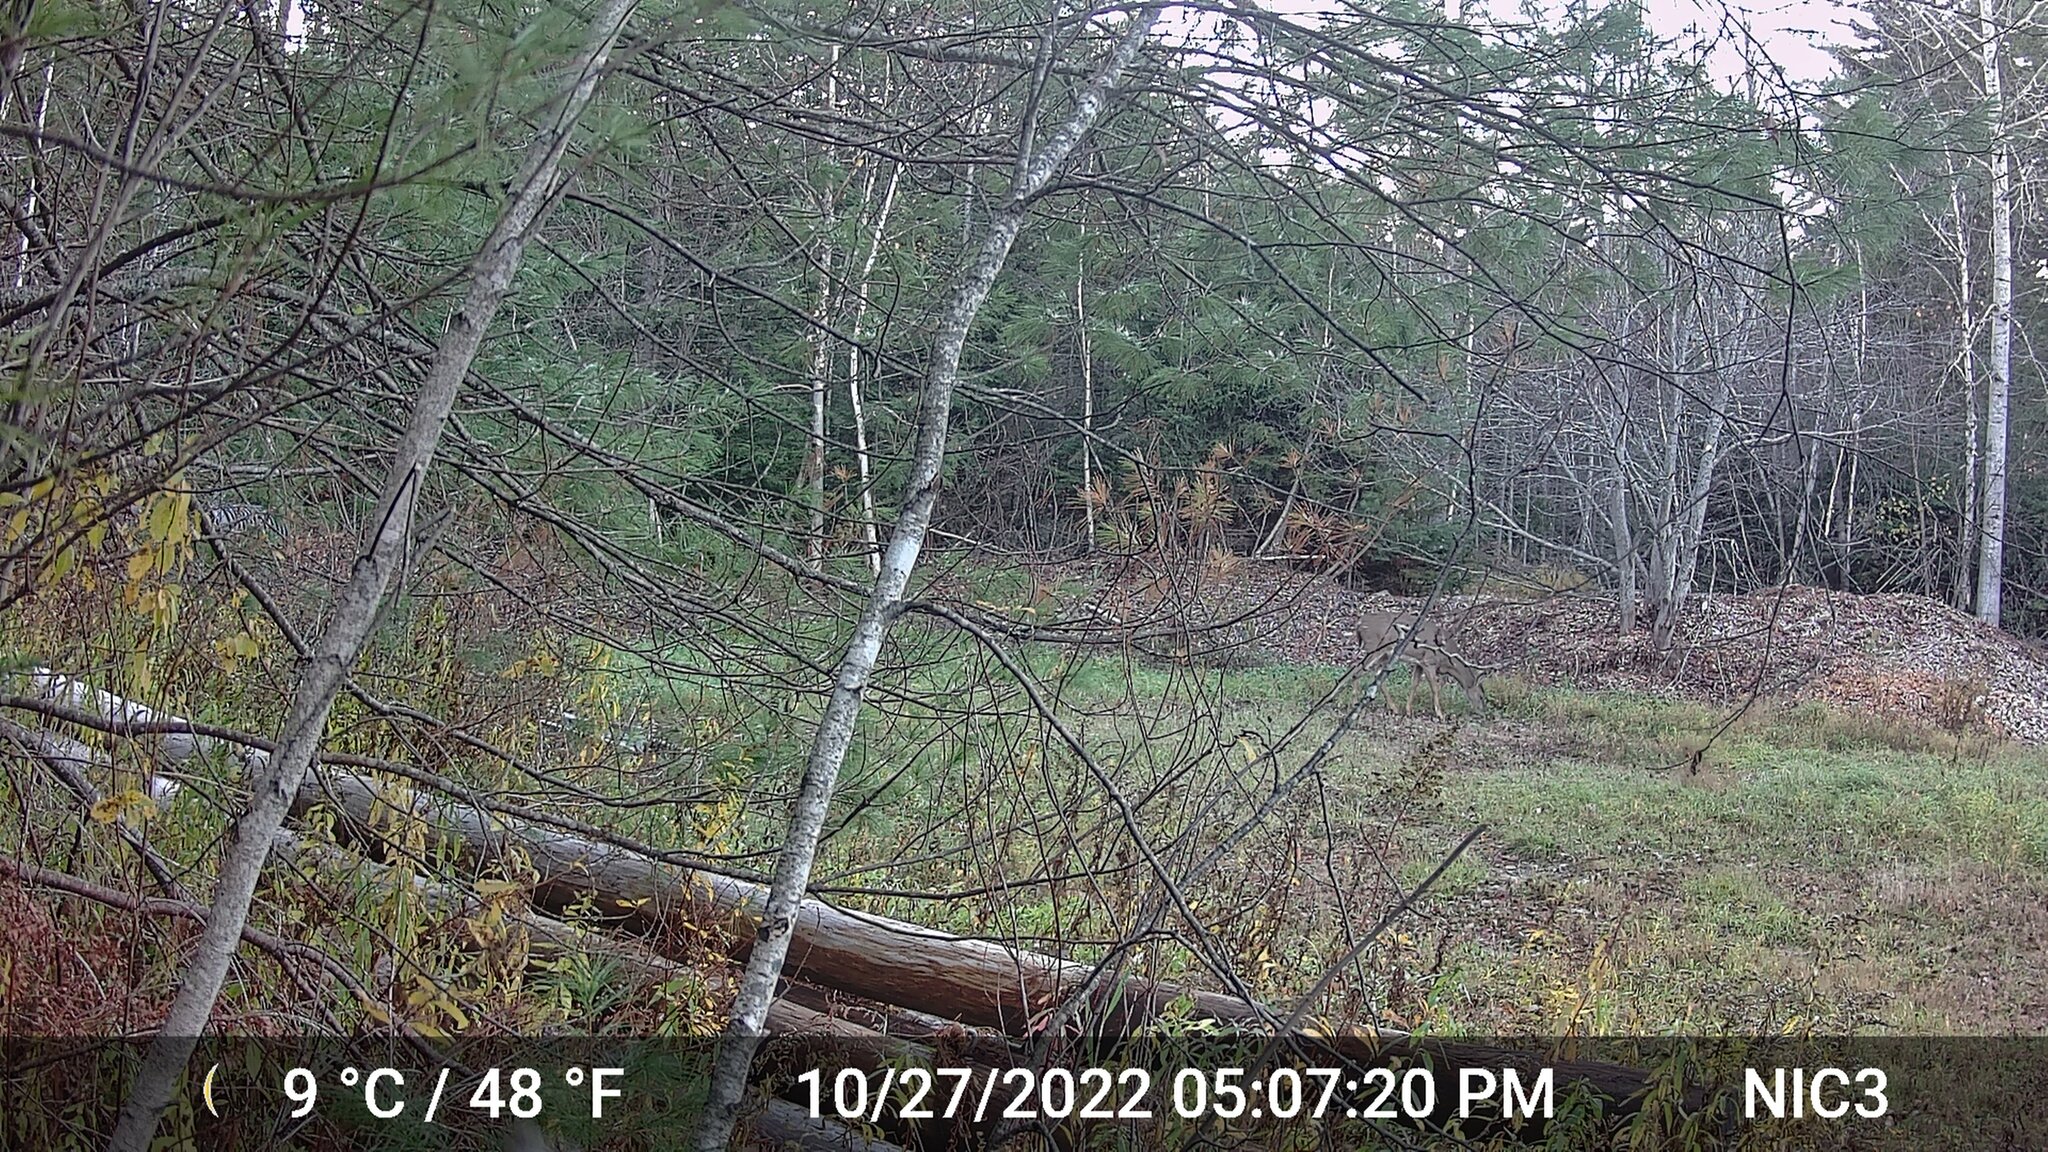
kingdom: Animalia
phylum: Chordata
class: Mammalia
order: Artiodactyla
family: Cervidae
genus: Odocoileus
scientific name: Odocoileus virginianus
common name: White-tailed deer
